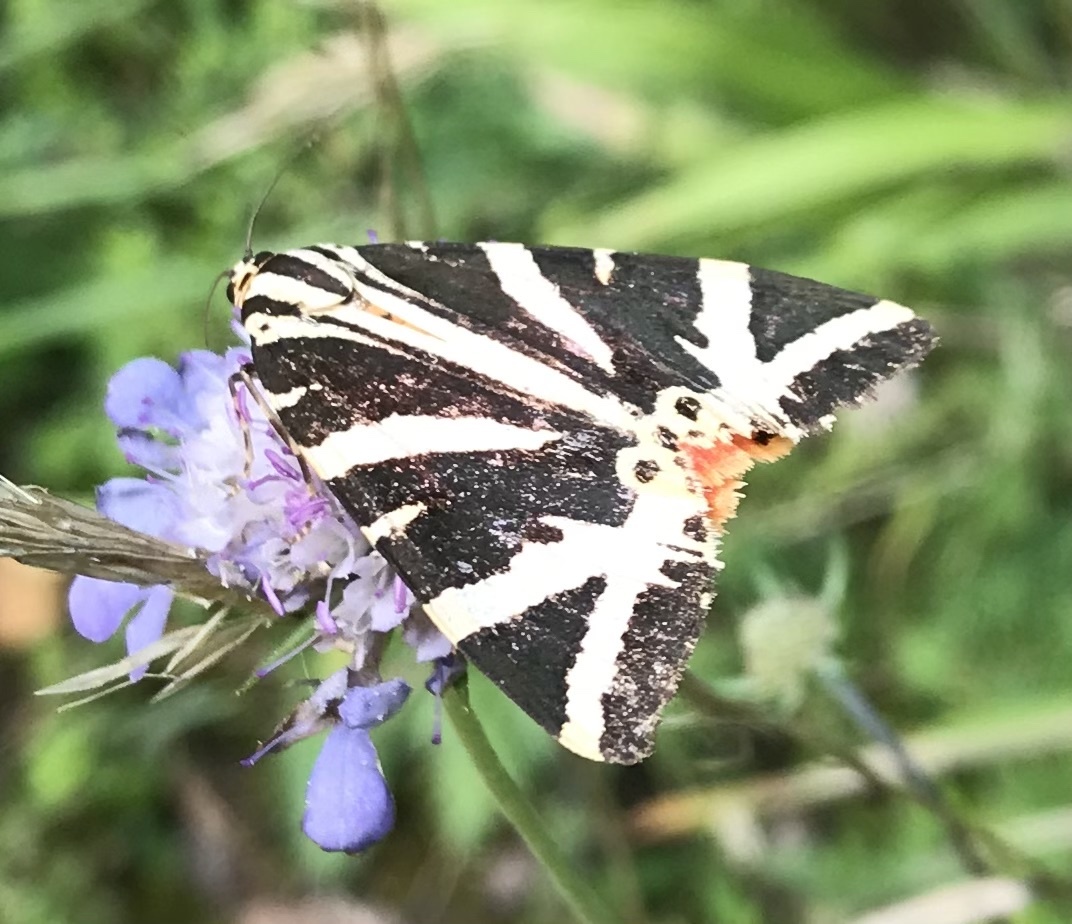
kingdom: Animalia
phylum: Arthropoda
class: Insecta
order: Lepidoptera
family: Erebidae
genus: Euplagia
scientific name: Euplagia quadripunctaria
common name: Jersey tiger
